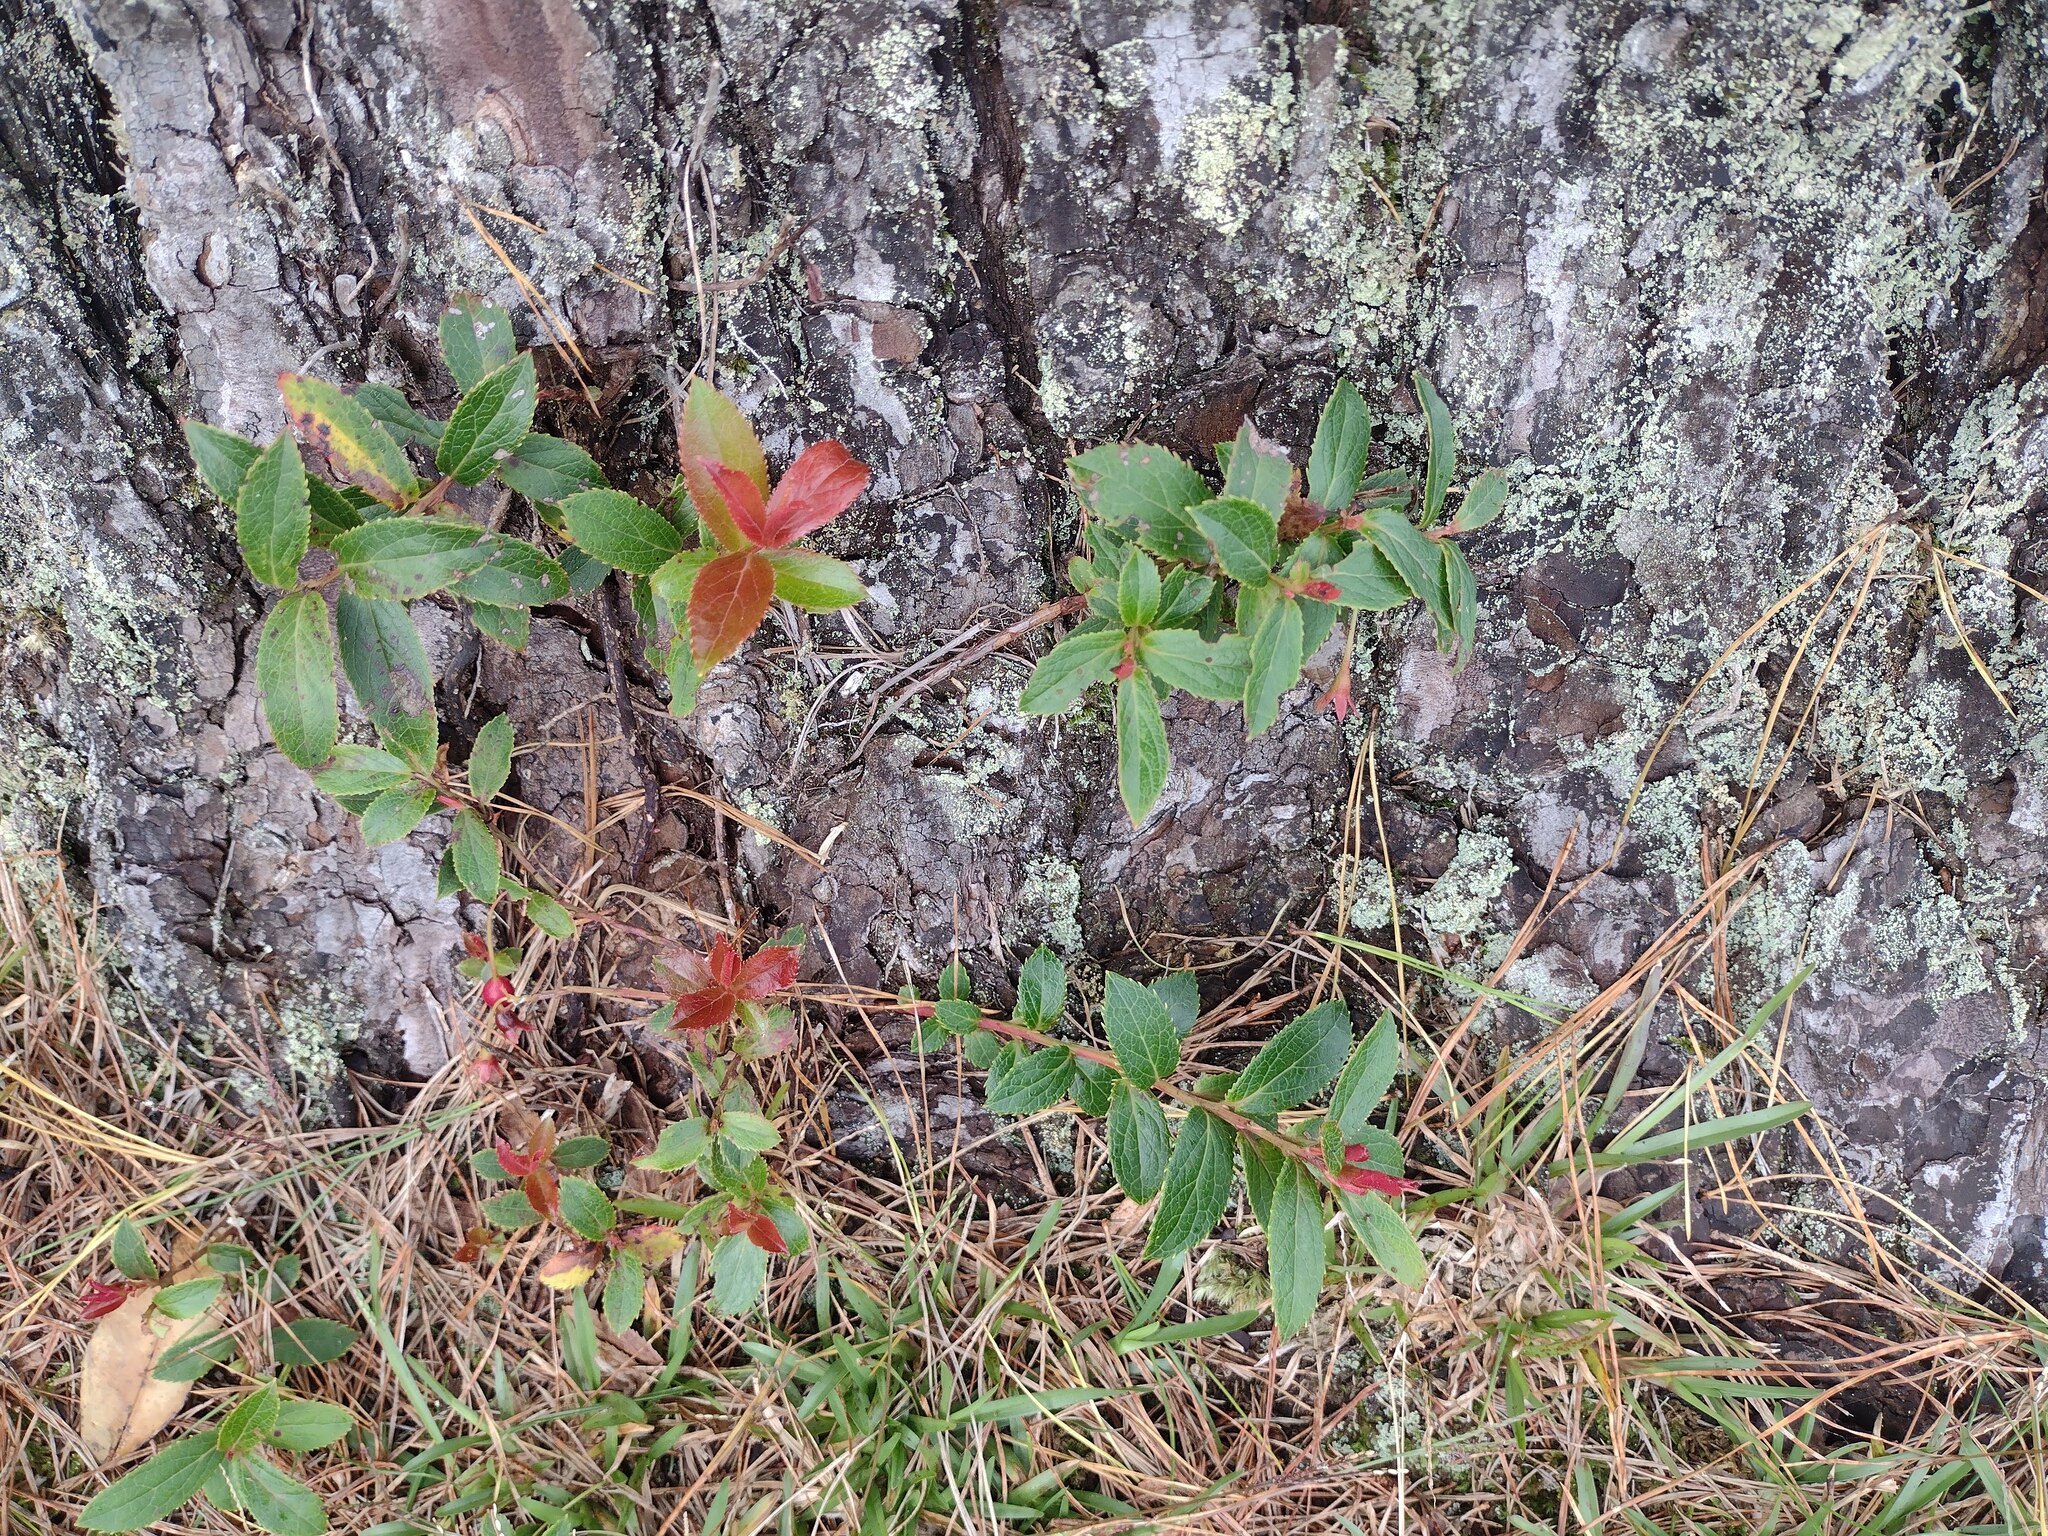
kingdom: Plantae
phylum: Tracheophyta
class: Magnoliopsida
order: Ericales
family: Ericaceae
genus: Vaccinium
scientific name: Vaccinium dentatum
